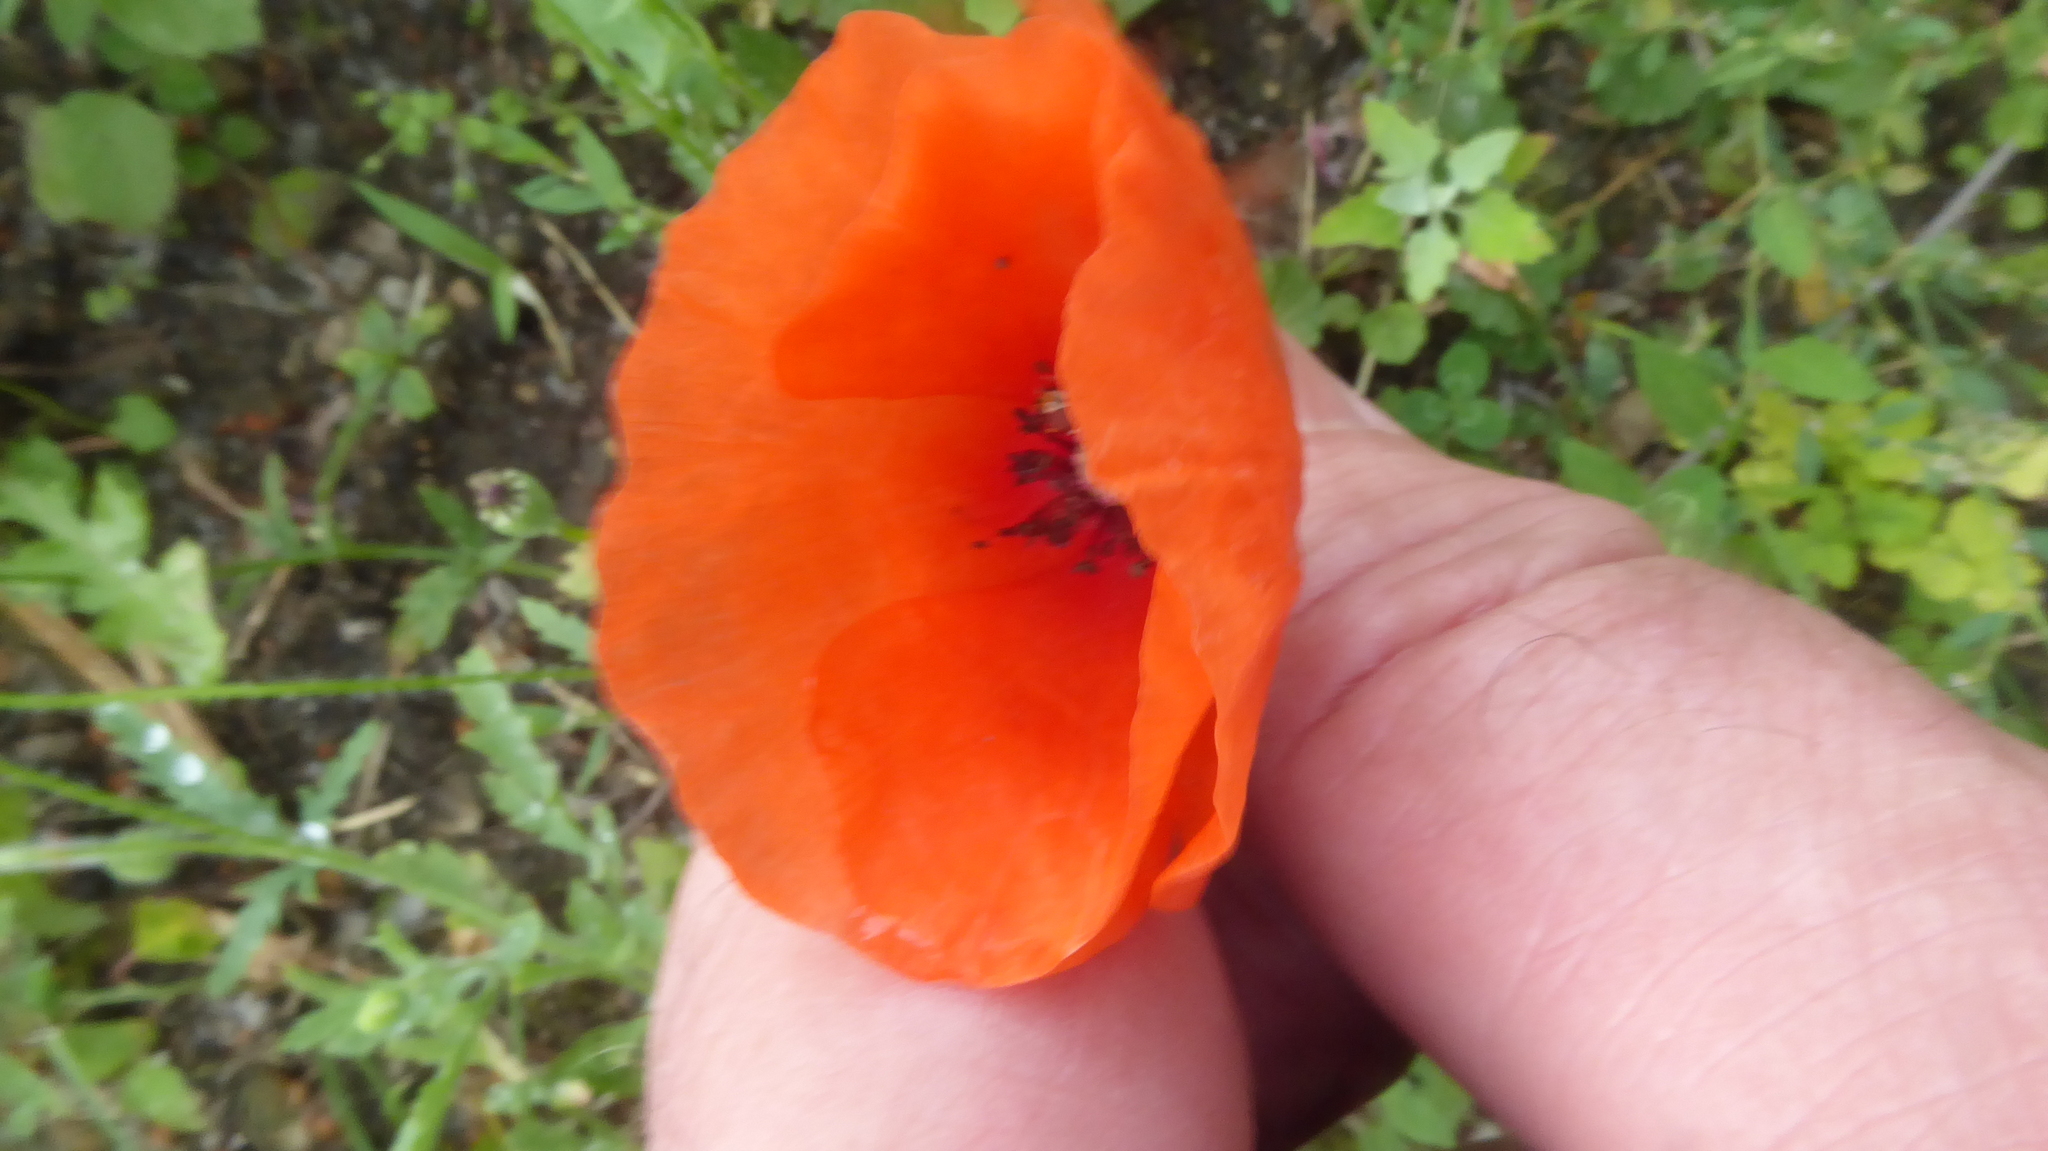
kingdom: Plantae
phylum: Tracheophyta
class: Magnoliopsida
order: Ranunculales
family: Papaveraceae
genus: Papaver
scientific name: Papaver rhoeas
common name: Corn poppy
